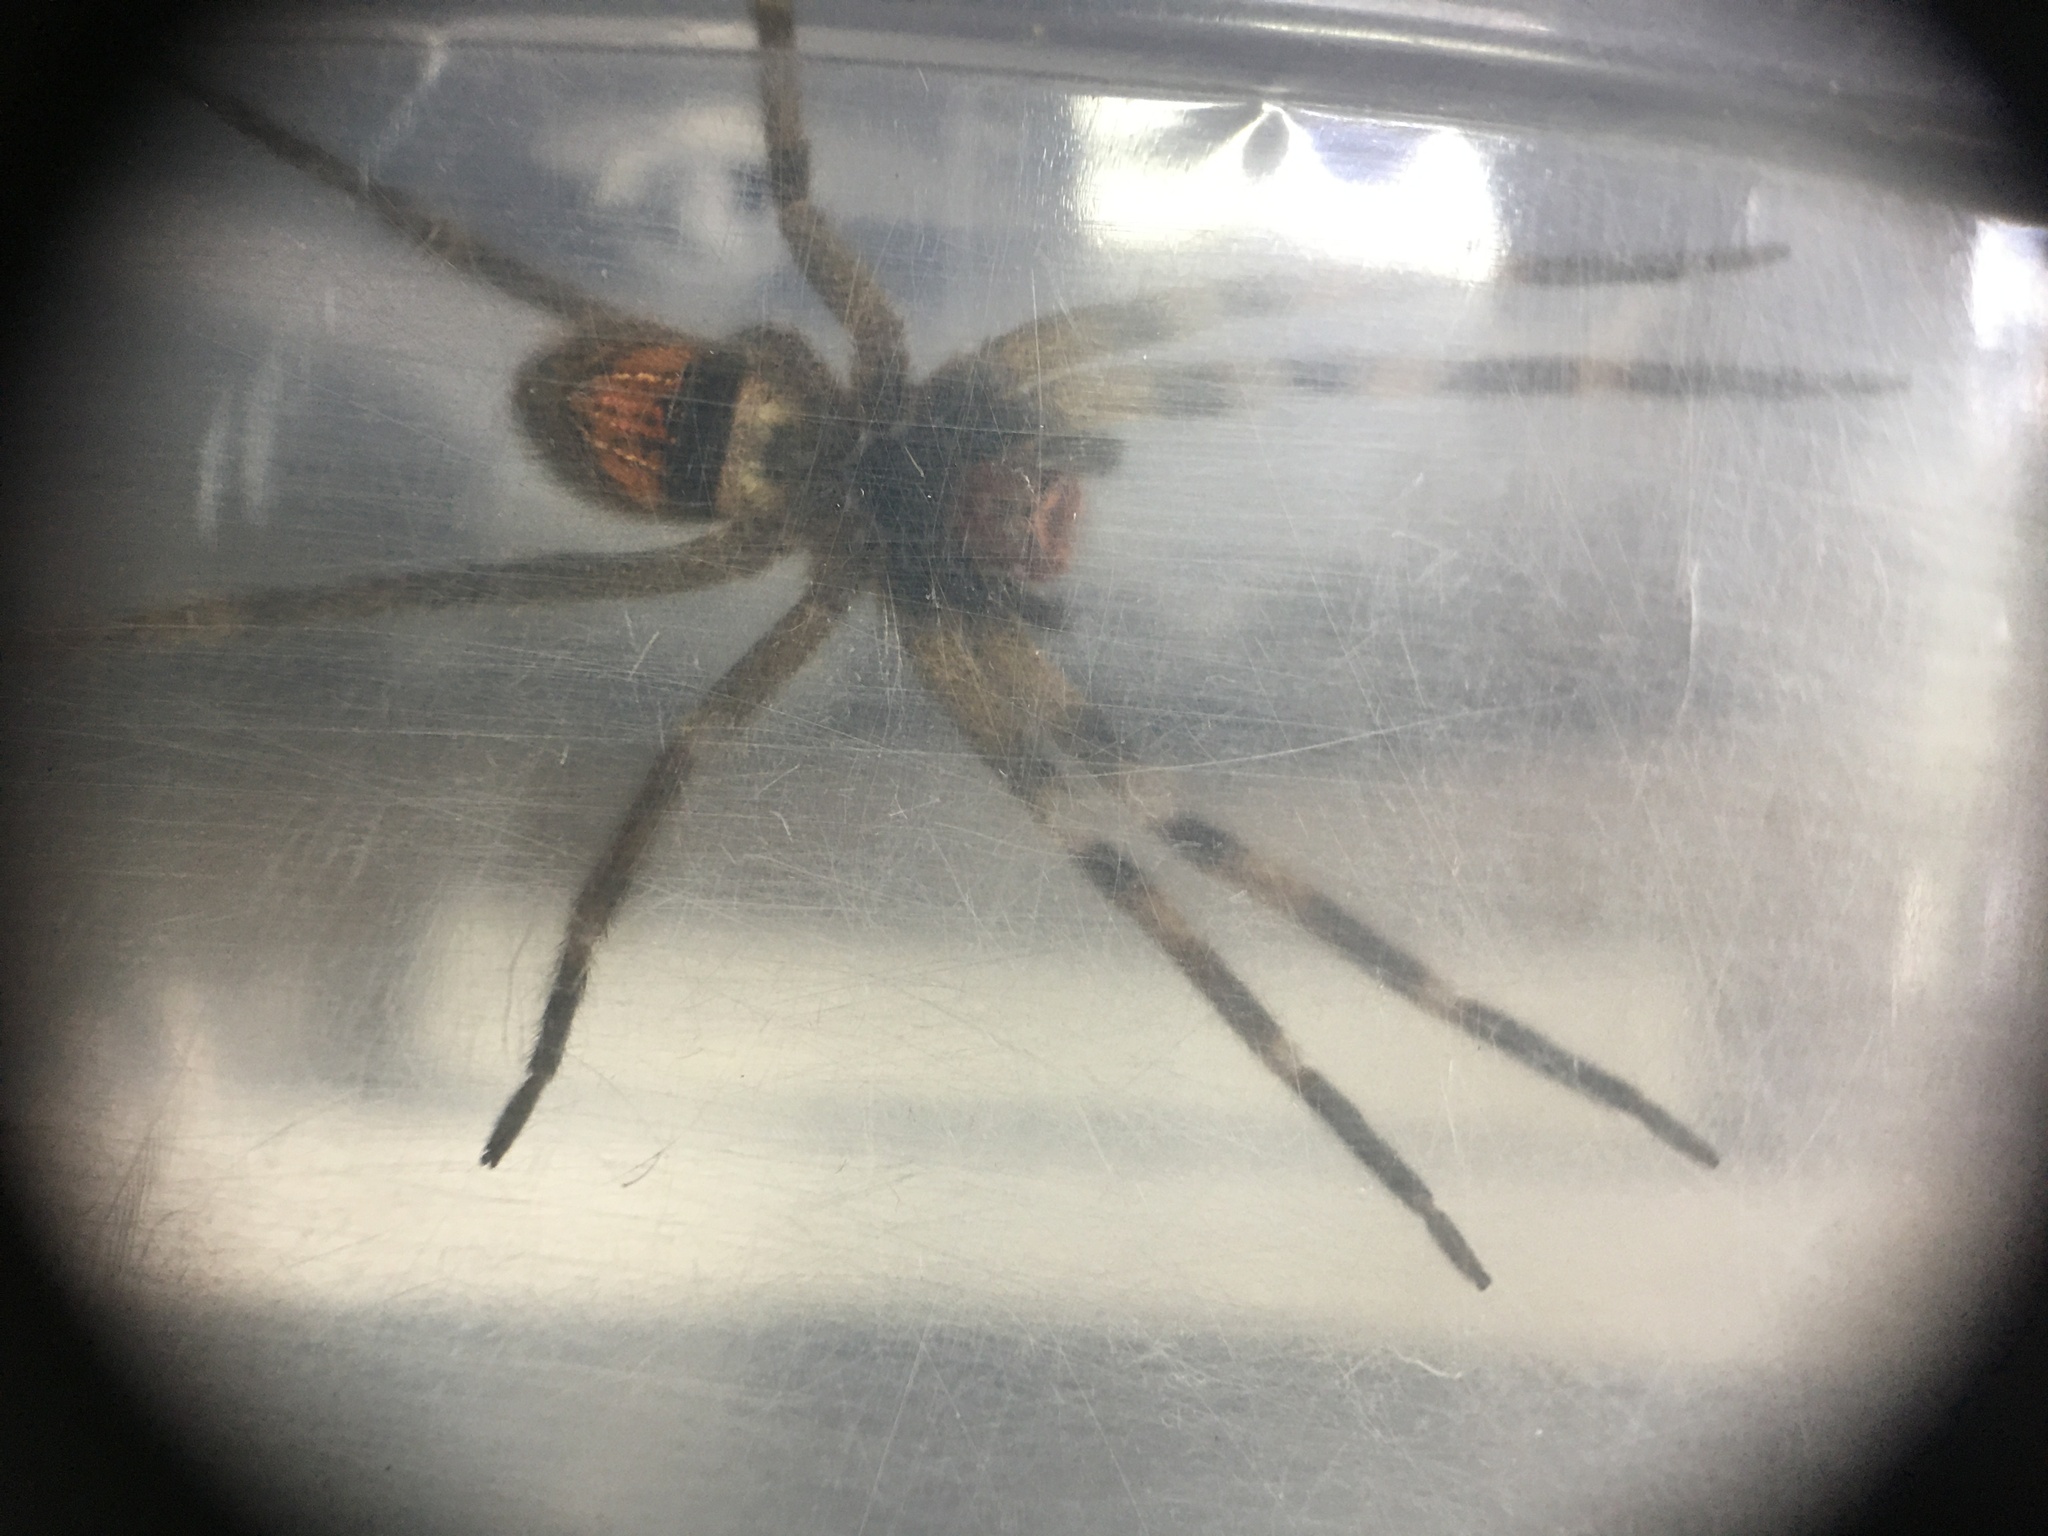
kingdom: Animalia
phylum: Arthropoda
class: Arachnida
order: Araneae
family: Ctenidae
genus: Phoneutria
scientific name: Phoneutria nigriventer
